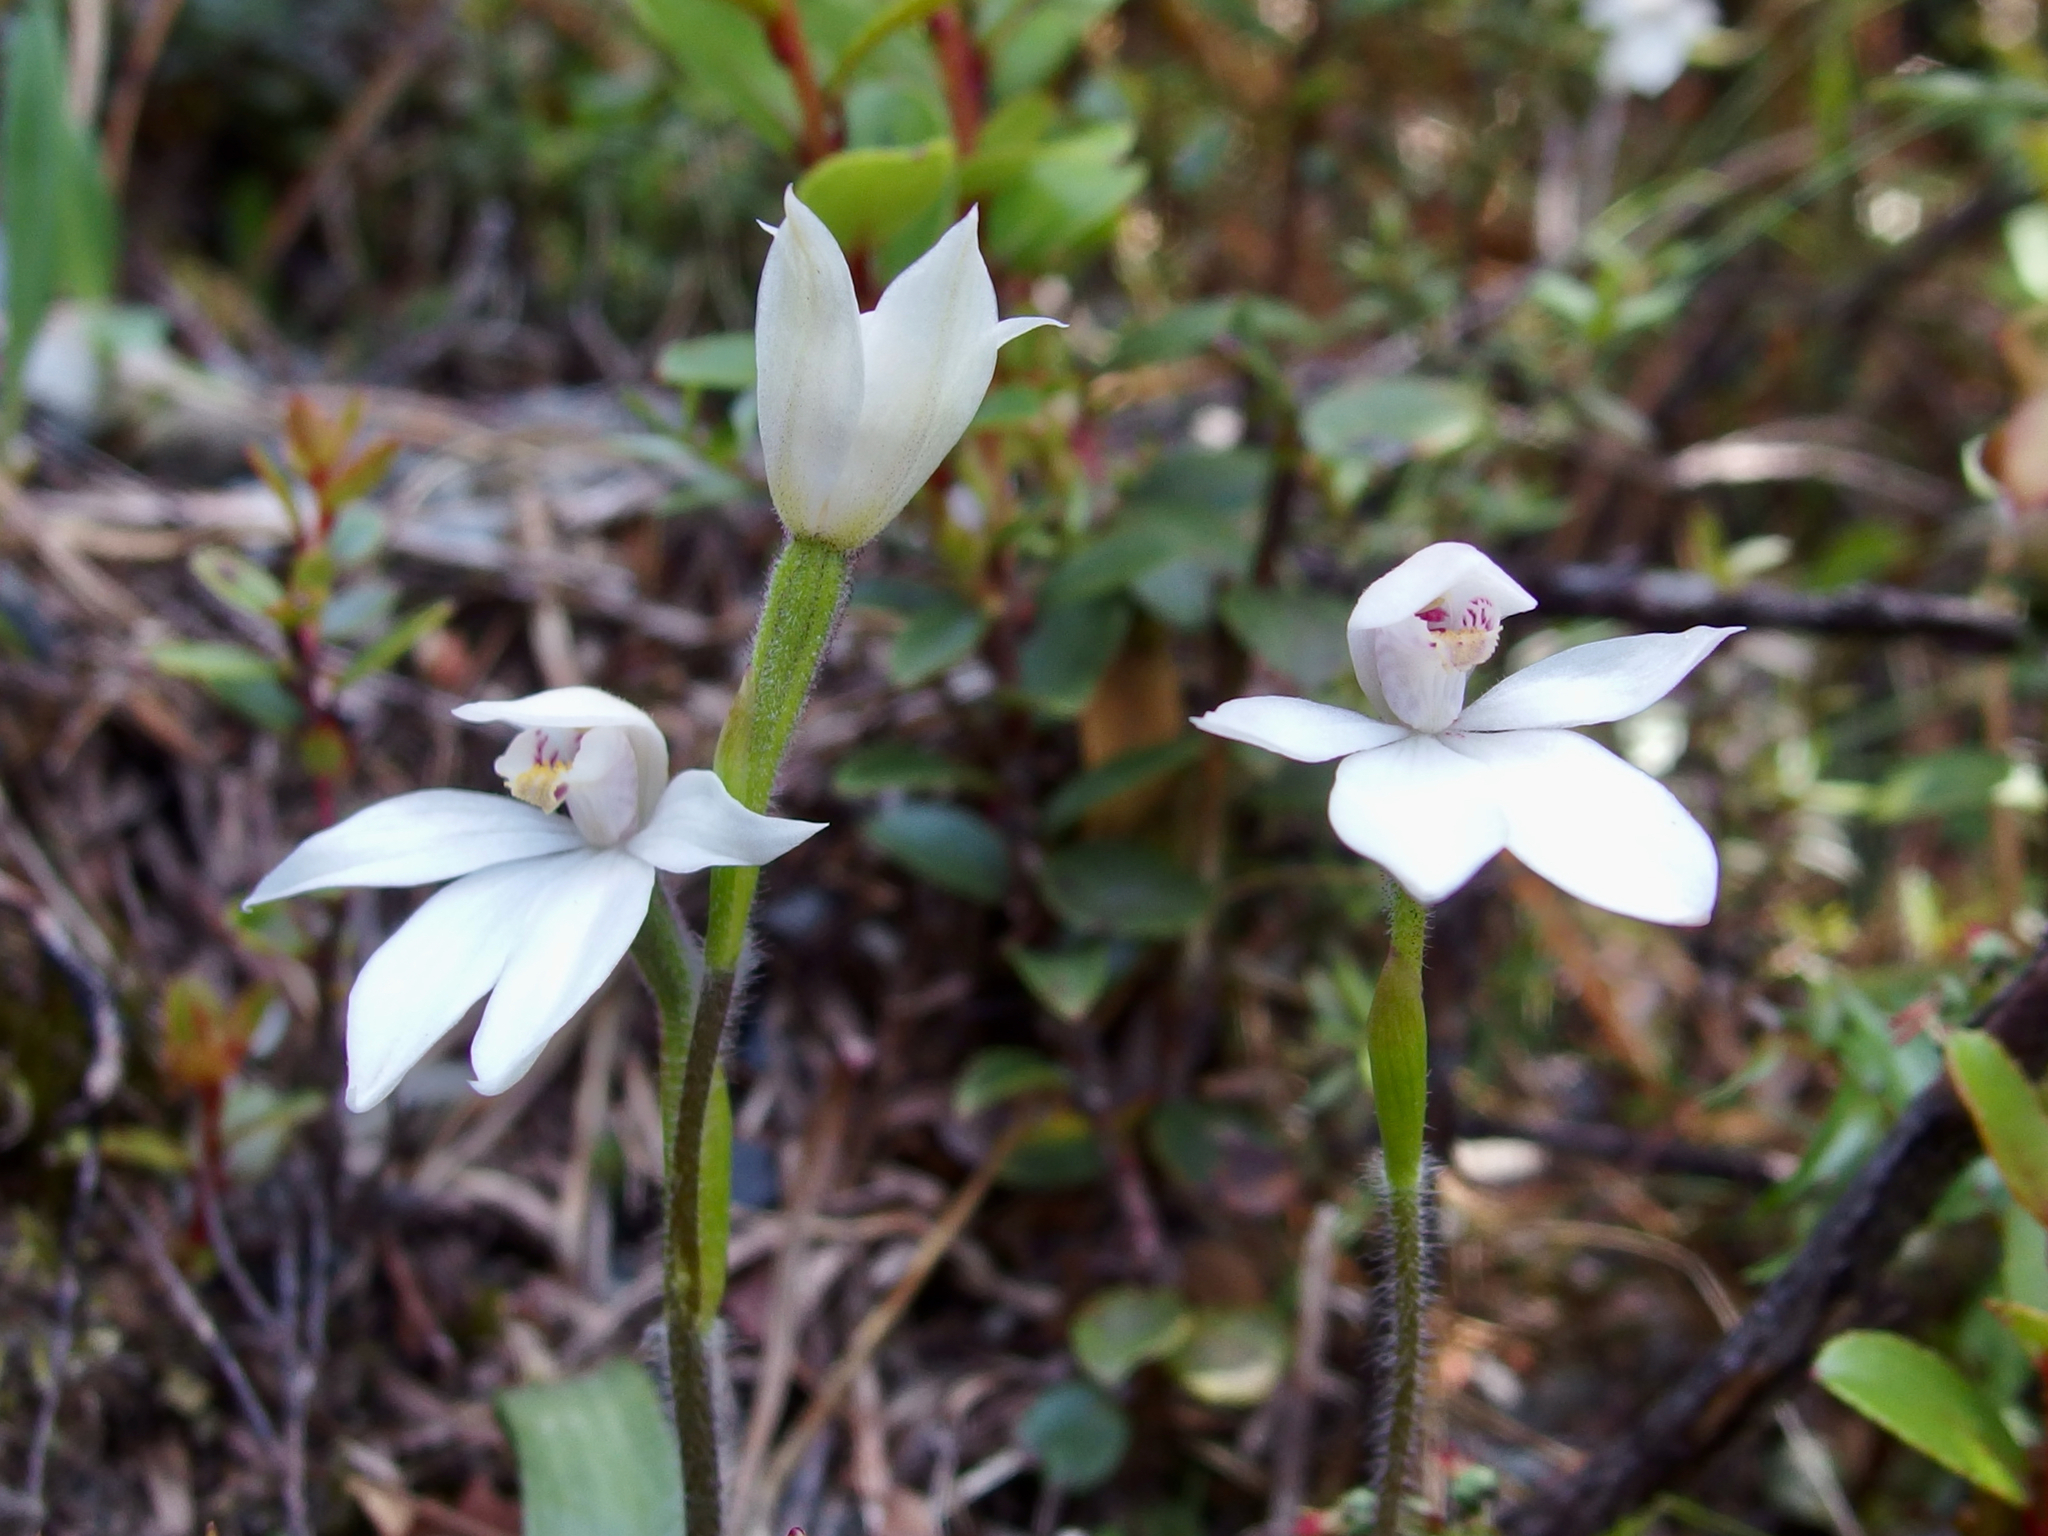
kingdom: Plantae
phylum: Tracheophyta
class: Liliopsida
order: Asparagales
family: Orchidaceae
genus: Caladenia
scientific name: Caladenia lyallii
